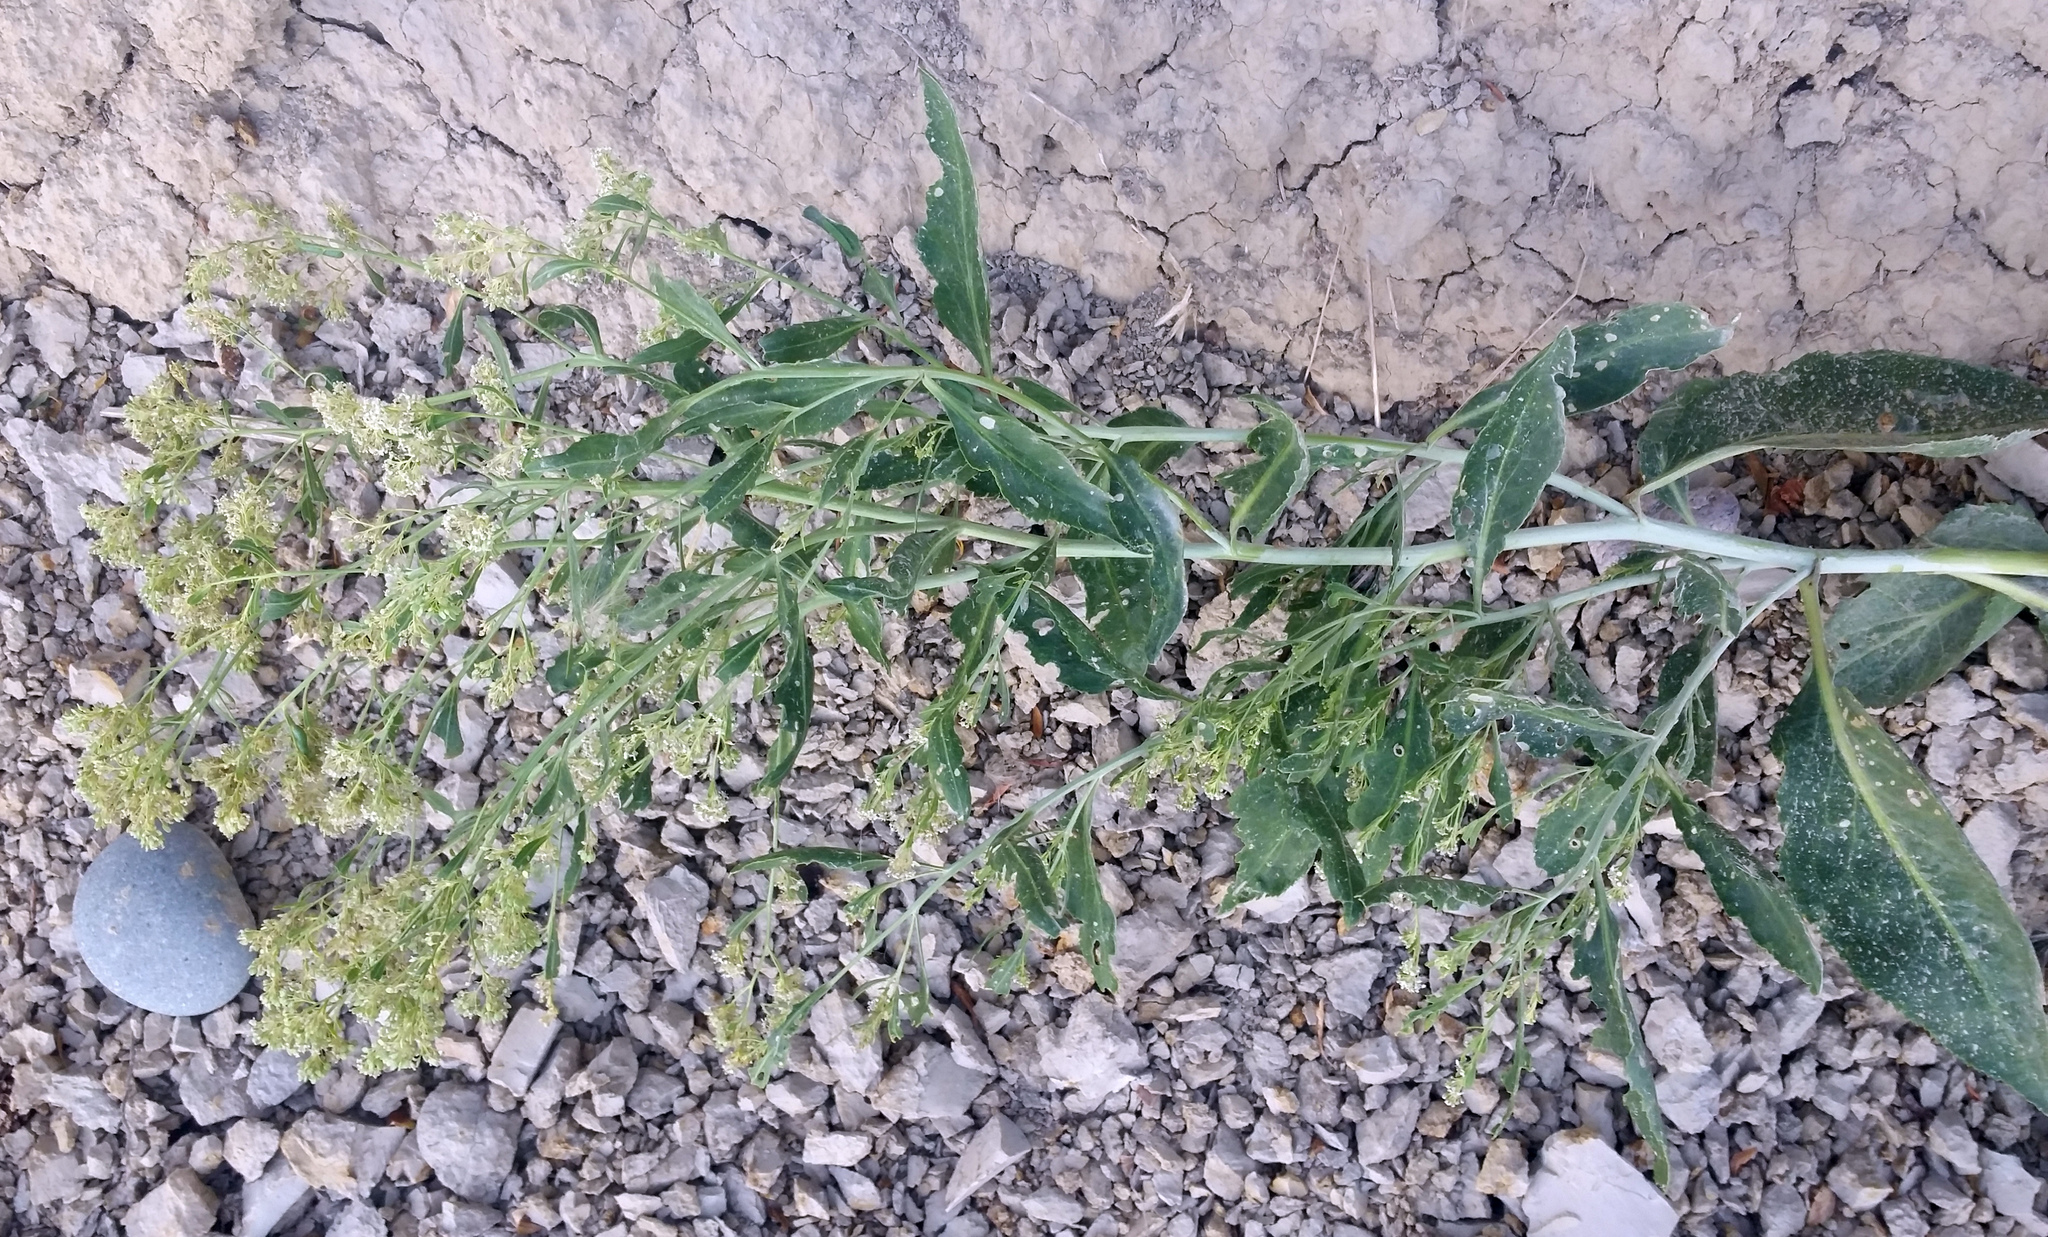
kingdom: Plantae
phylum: Tracheophyta
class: Magnoliopsida
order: Brassicales
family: Brassicaceae
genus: Lepidium
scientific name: Lepidium latifolium
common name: Dittander
